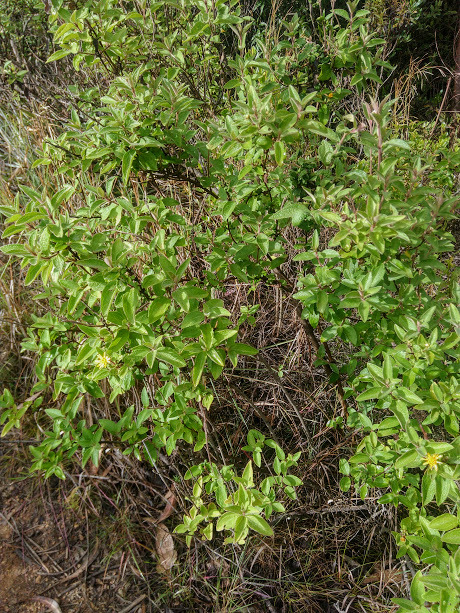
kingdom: Plantae
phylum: Tracheophyta
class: Magnoliopsida
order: Asterales
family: Asteraceae
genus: Calea
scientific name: Calea peruviana
